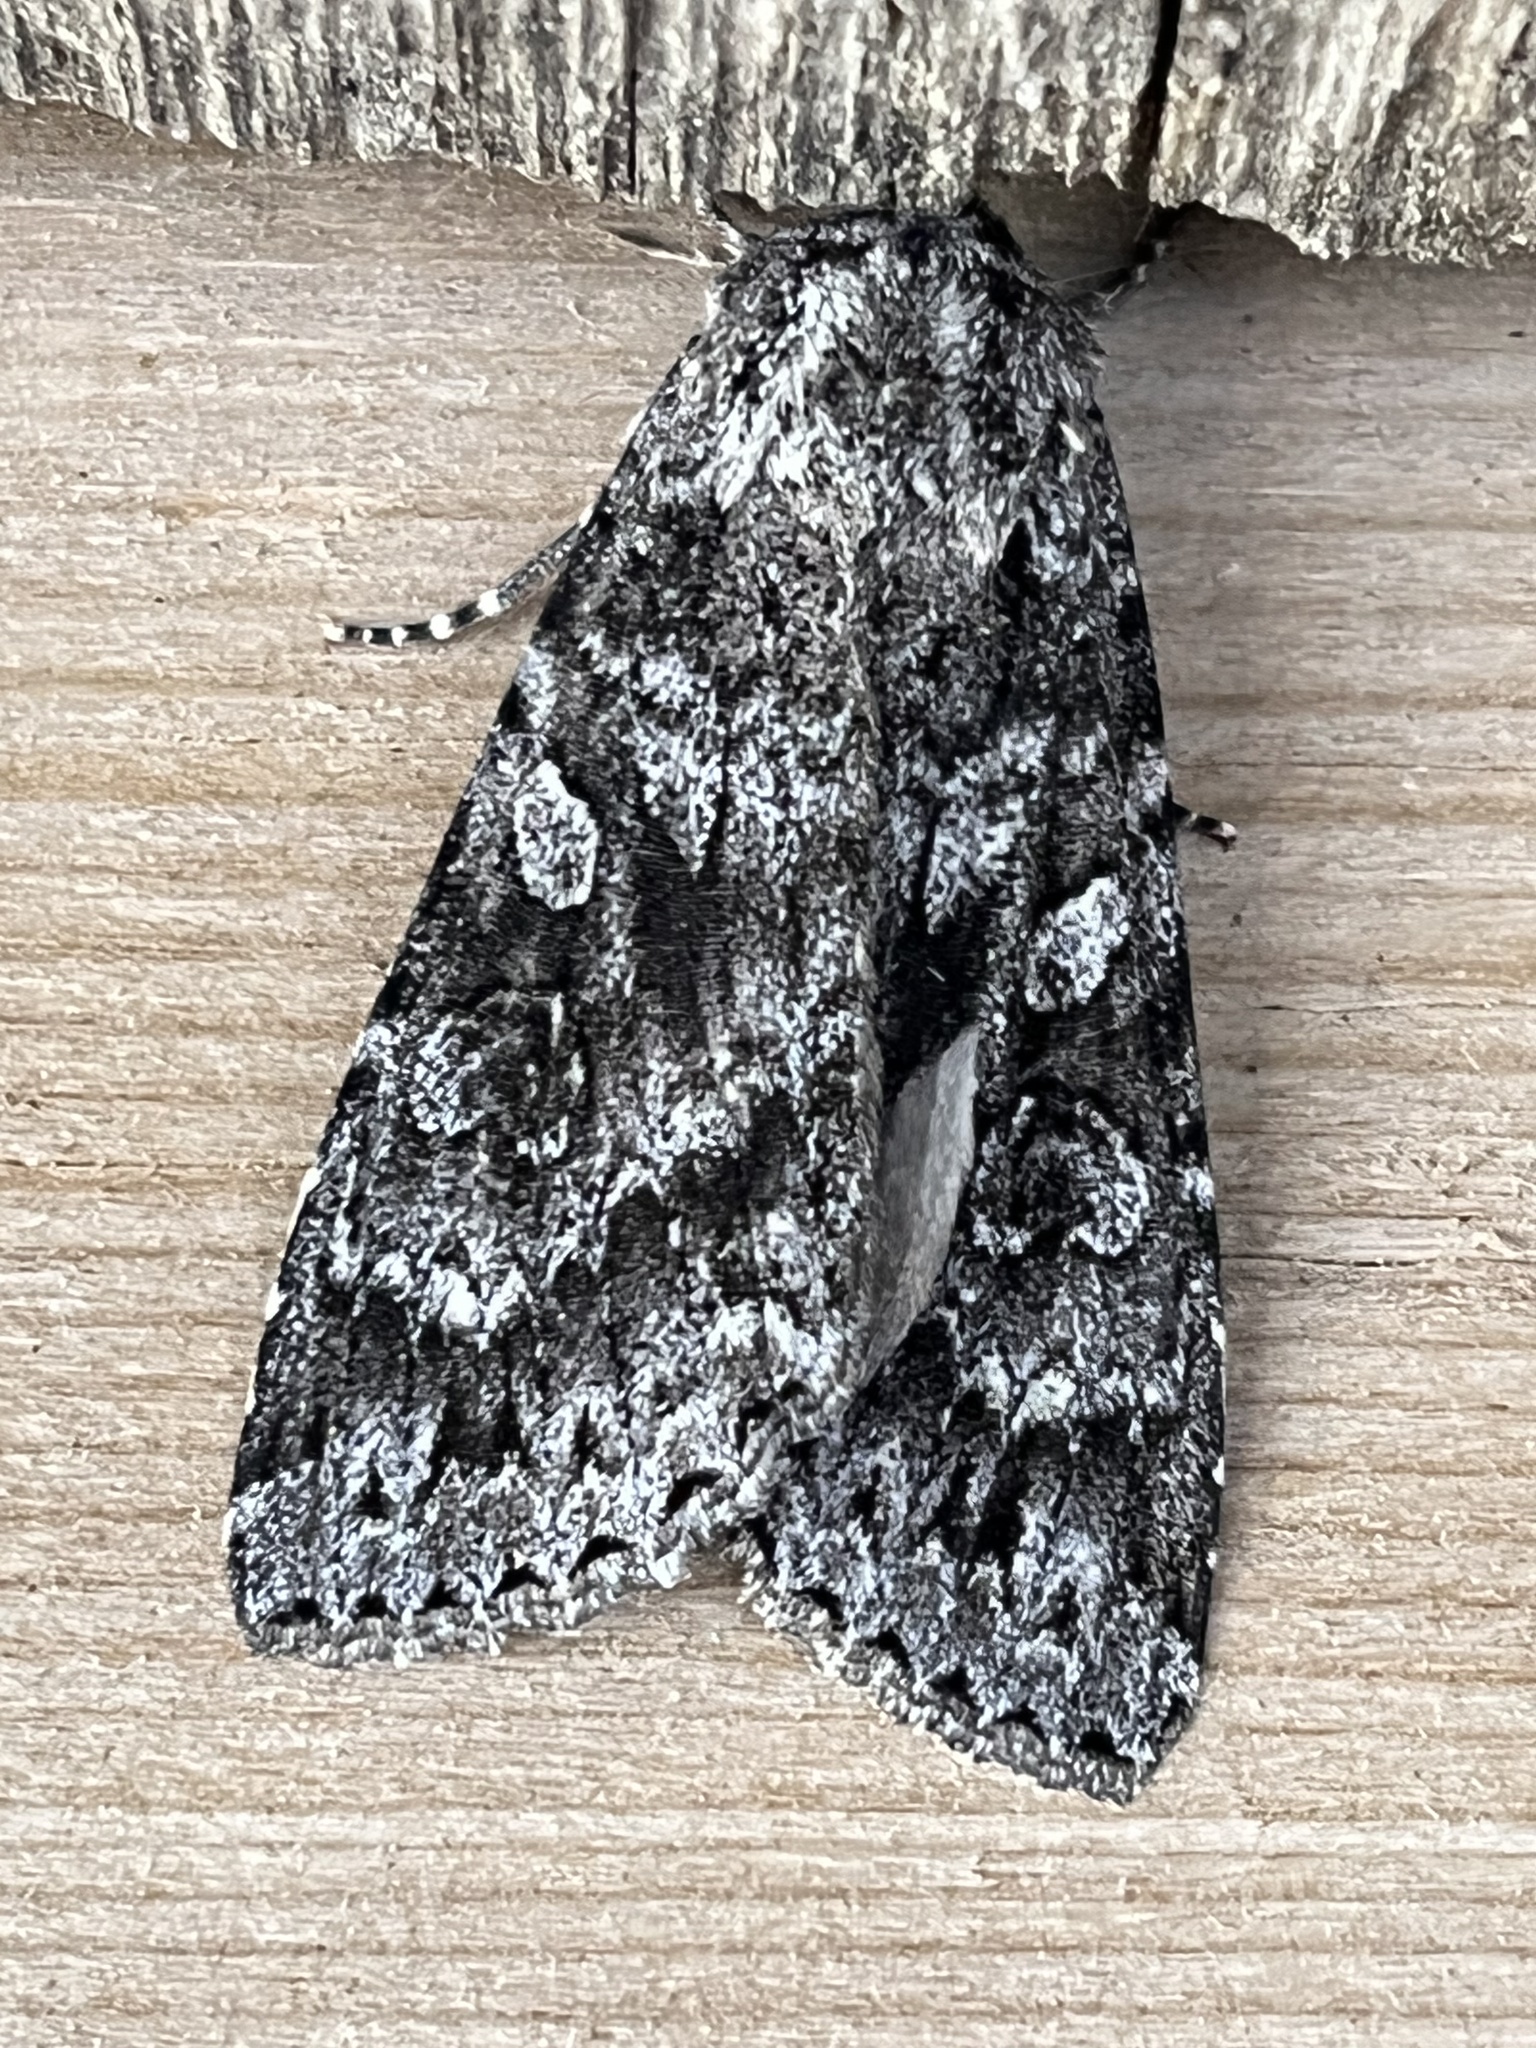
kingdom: Animalia
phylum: Arthropoda
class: Insecta
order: Lepidoptera
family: Noctuidae
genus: Eurois
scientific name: Eurois occulta
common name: Great brocade
